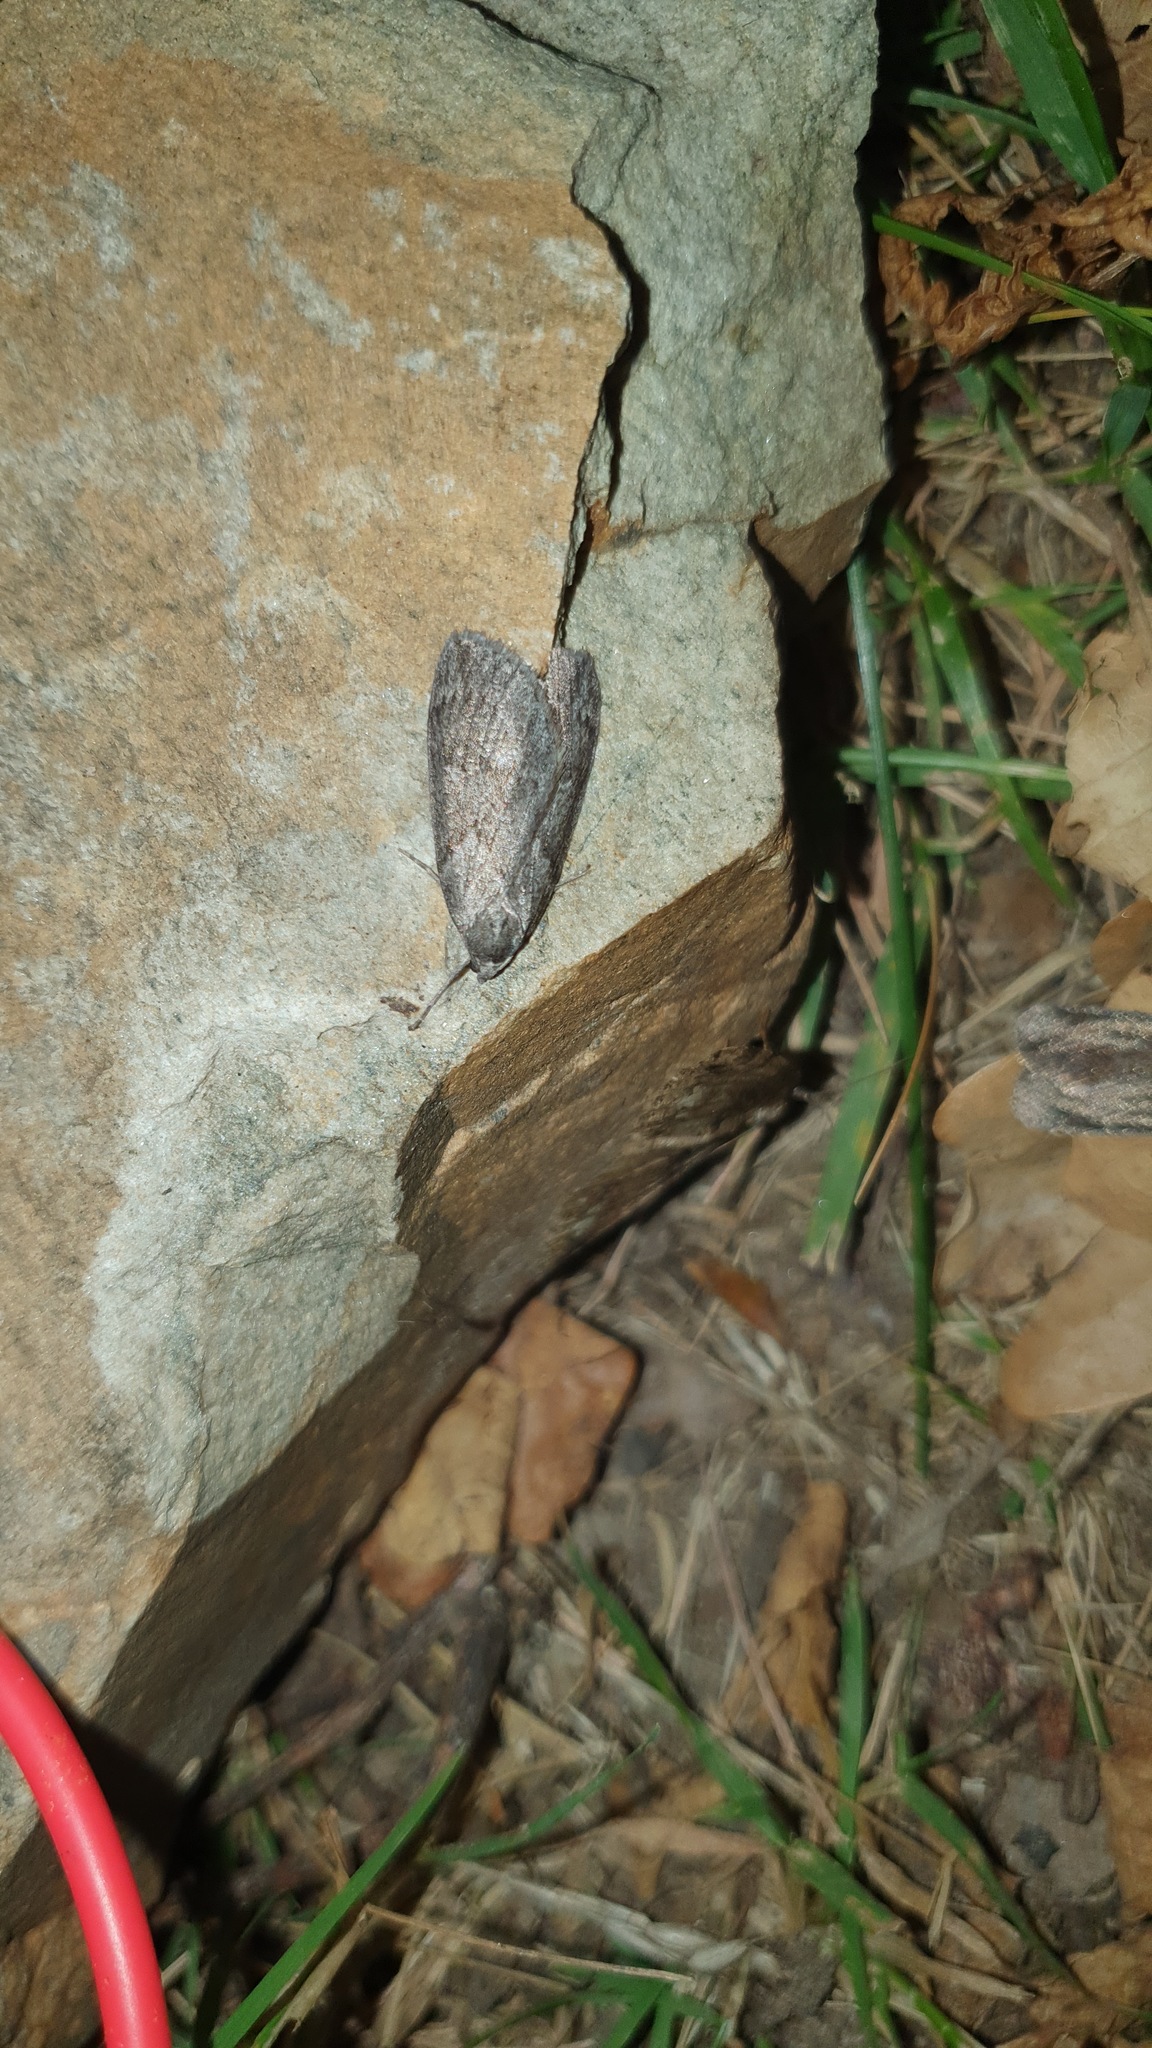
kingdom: Animalia
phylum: Arthropoda
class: Insecta
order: Lepidoptera
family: Geometridae
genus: Pachycnemia
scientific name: Pachycnemia hippocastanaria
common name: Horse chestnut
